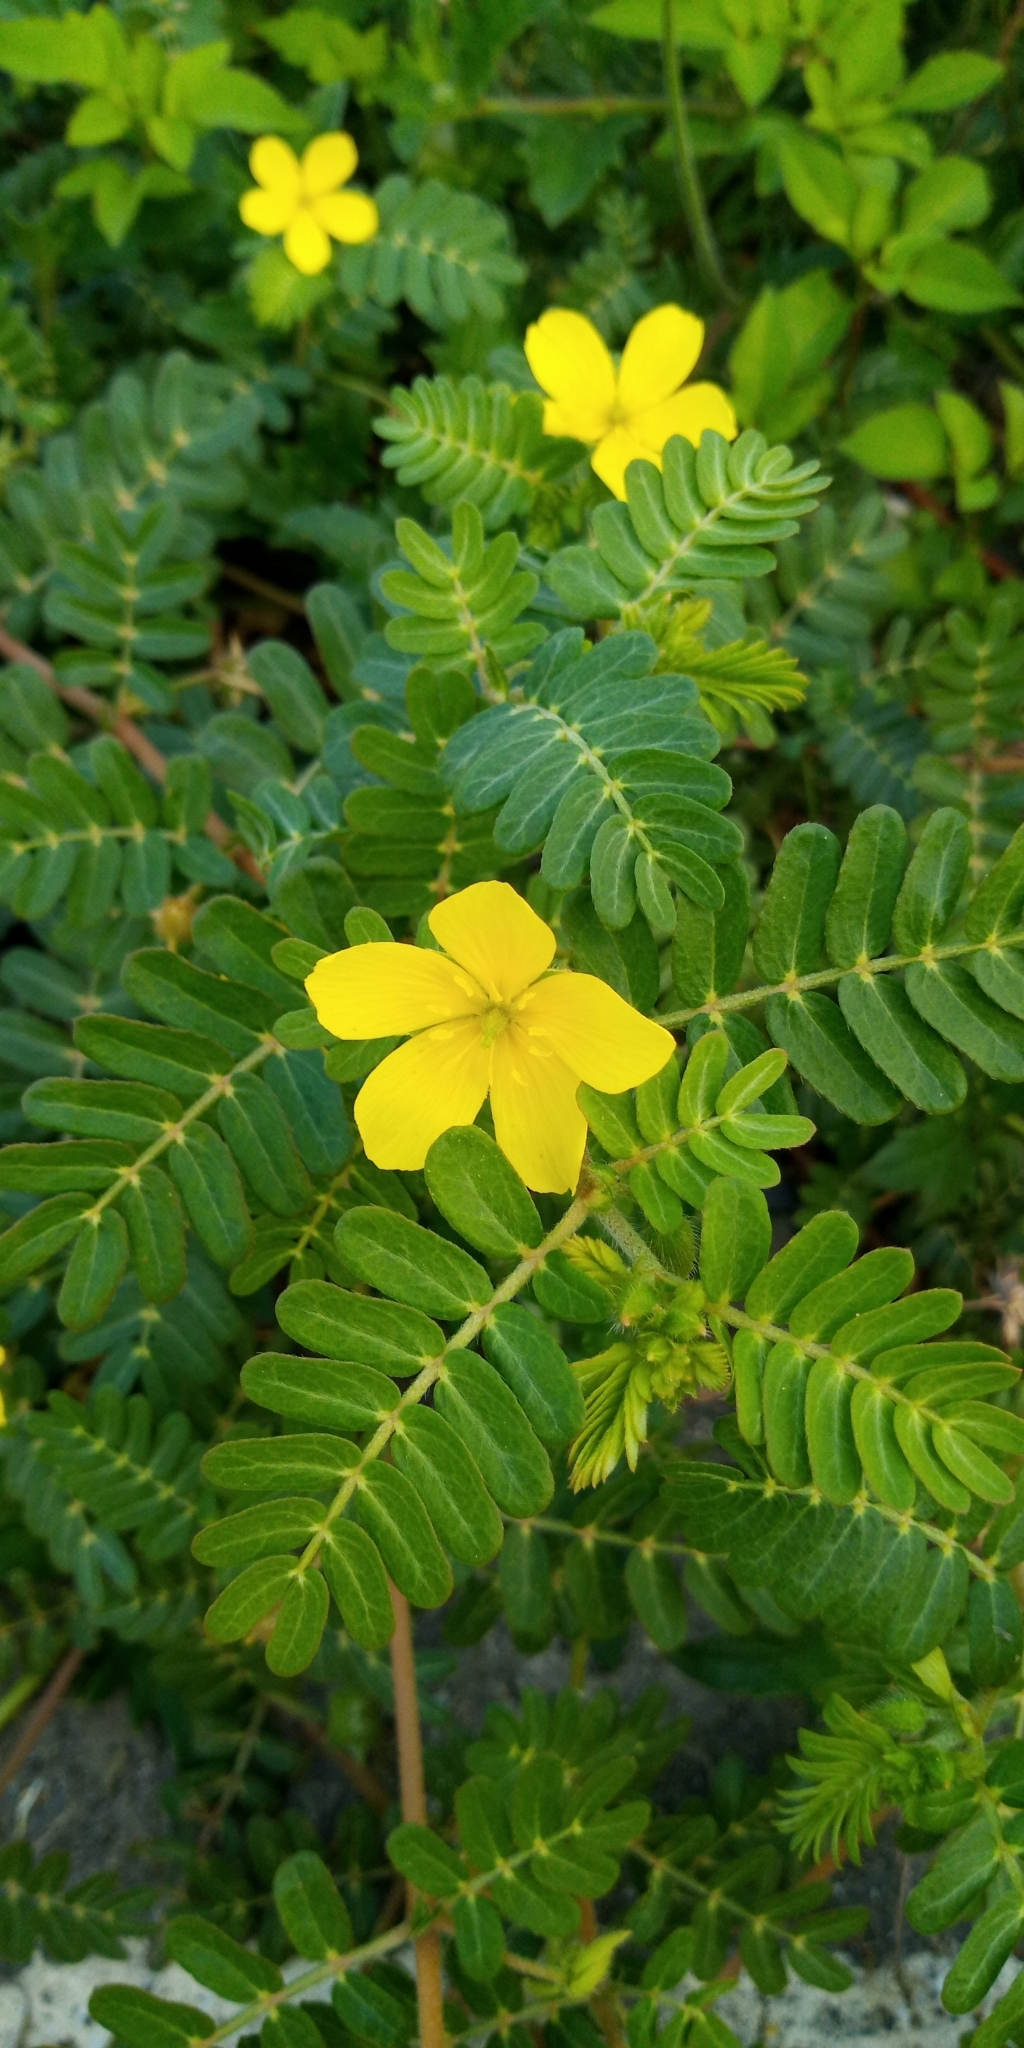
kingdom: Plantae
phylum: Tracheophyta
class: Magnoliopsida
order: Zygophyllales
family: Zygophyllaceae
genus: Tribulus
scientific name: Tribulus cistoides
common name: Jamaican feverplant
